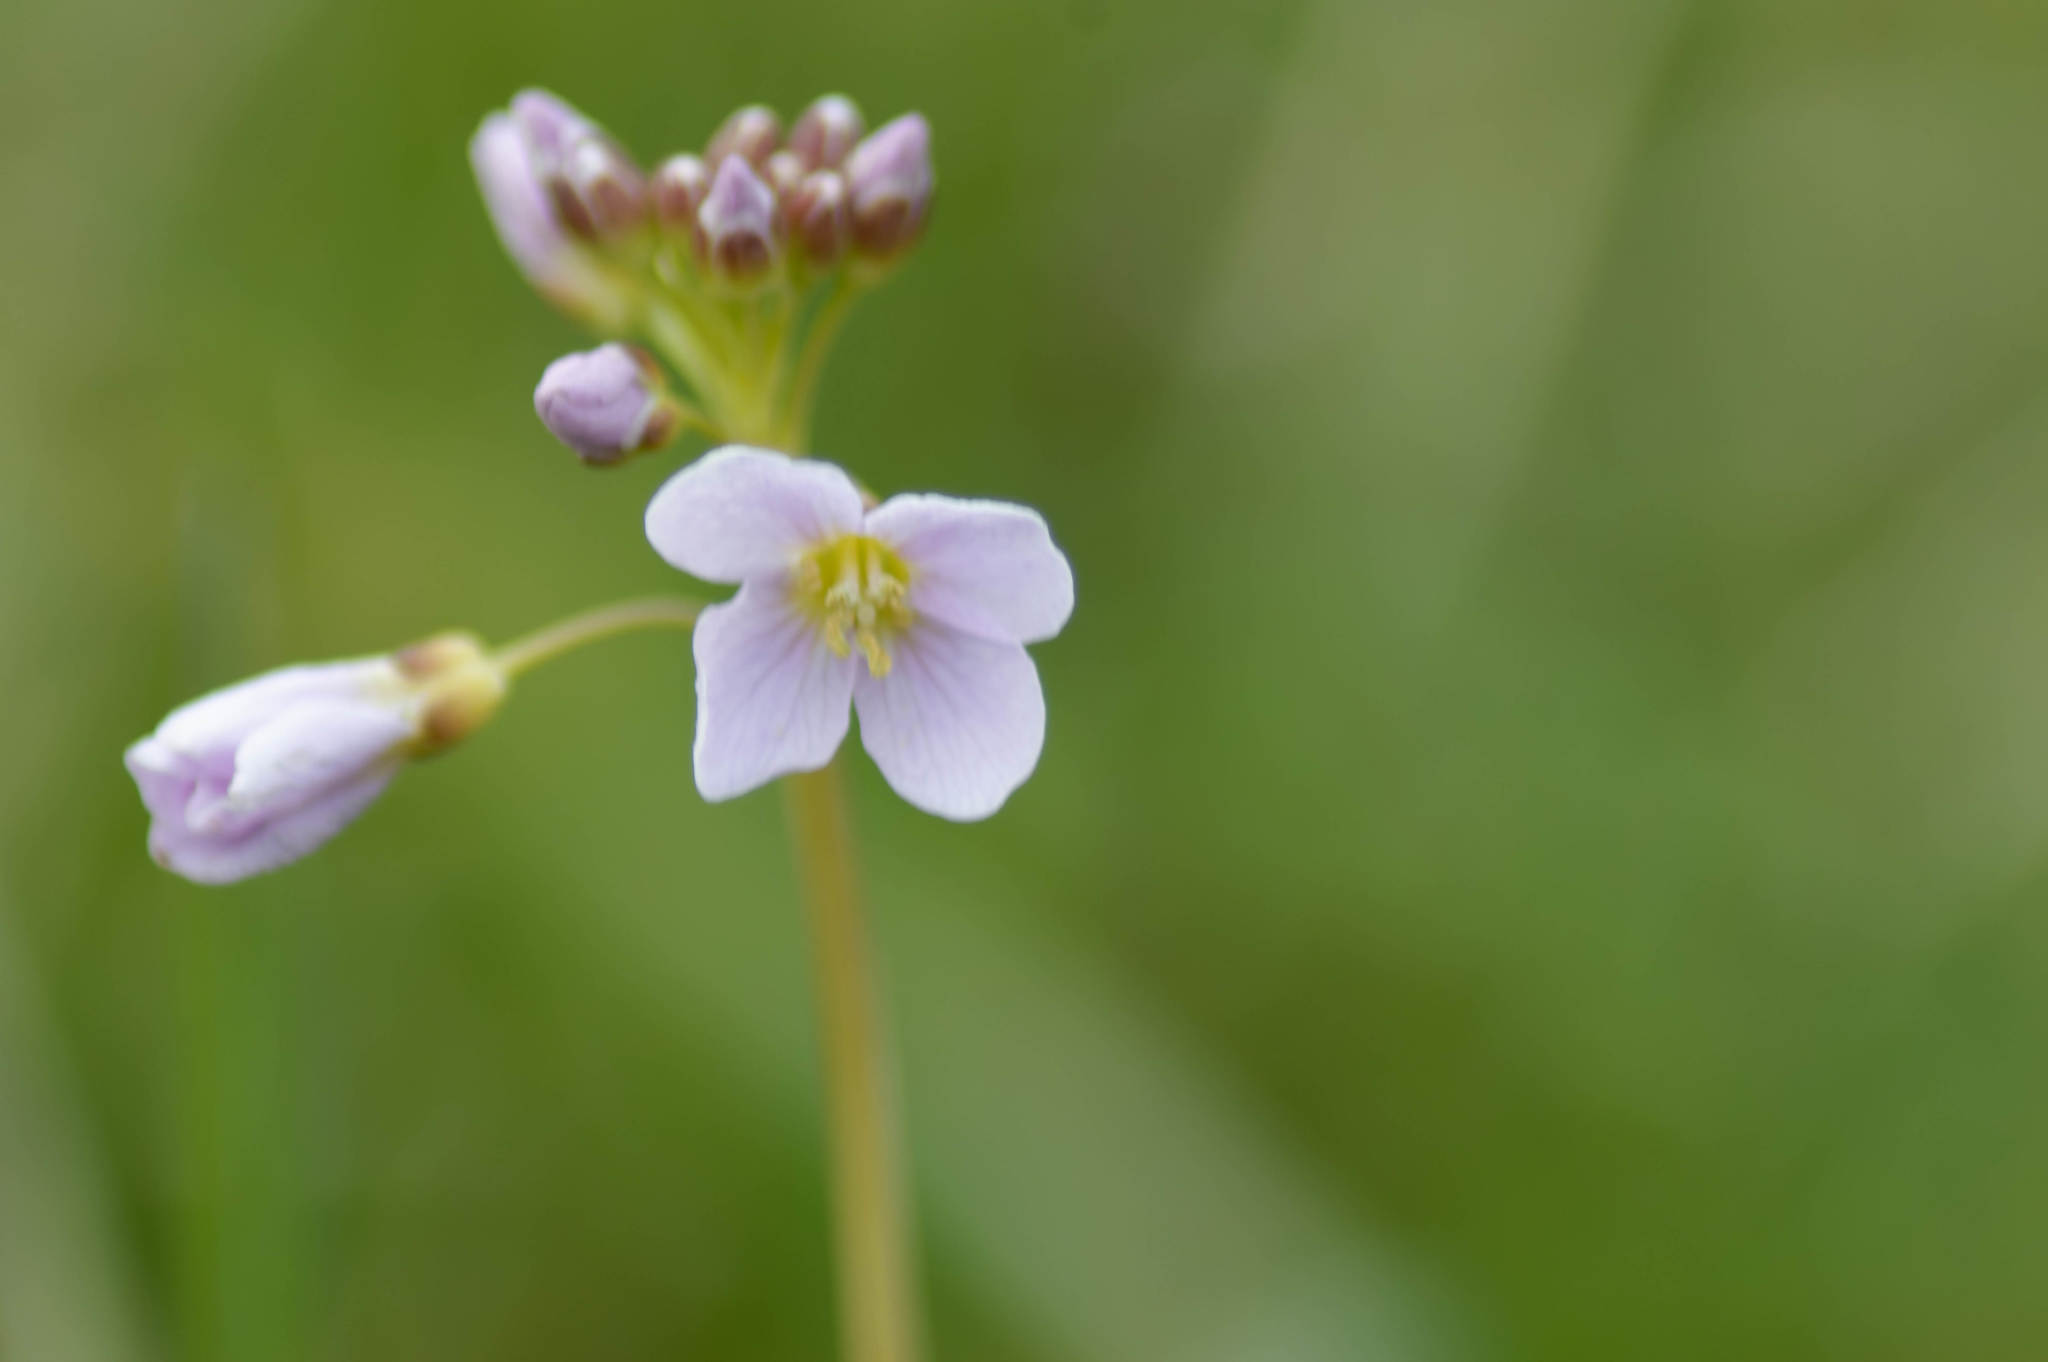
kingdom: Plantae
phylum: Tracheophyta
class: Magnoliopsida
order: Brassicales
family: Brassicaceae
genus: Cardamine
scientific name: Cardamine pratensis
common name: Cuckoo flower
